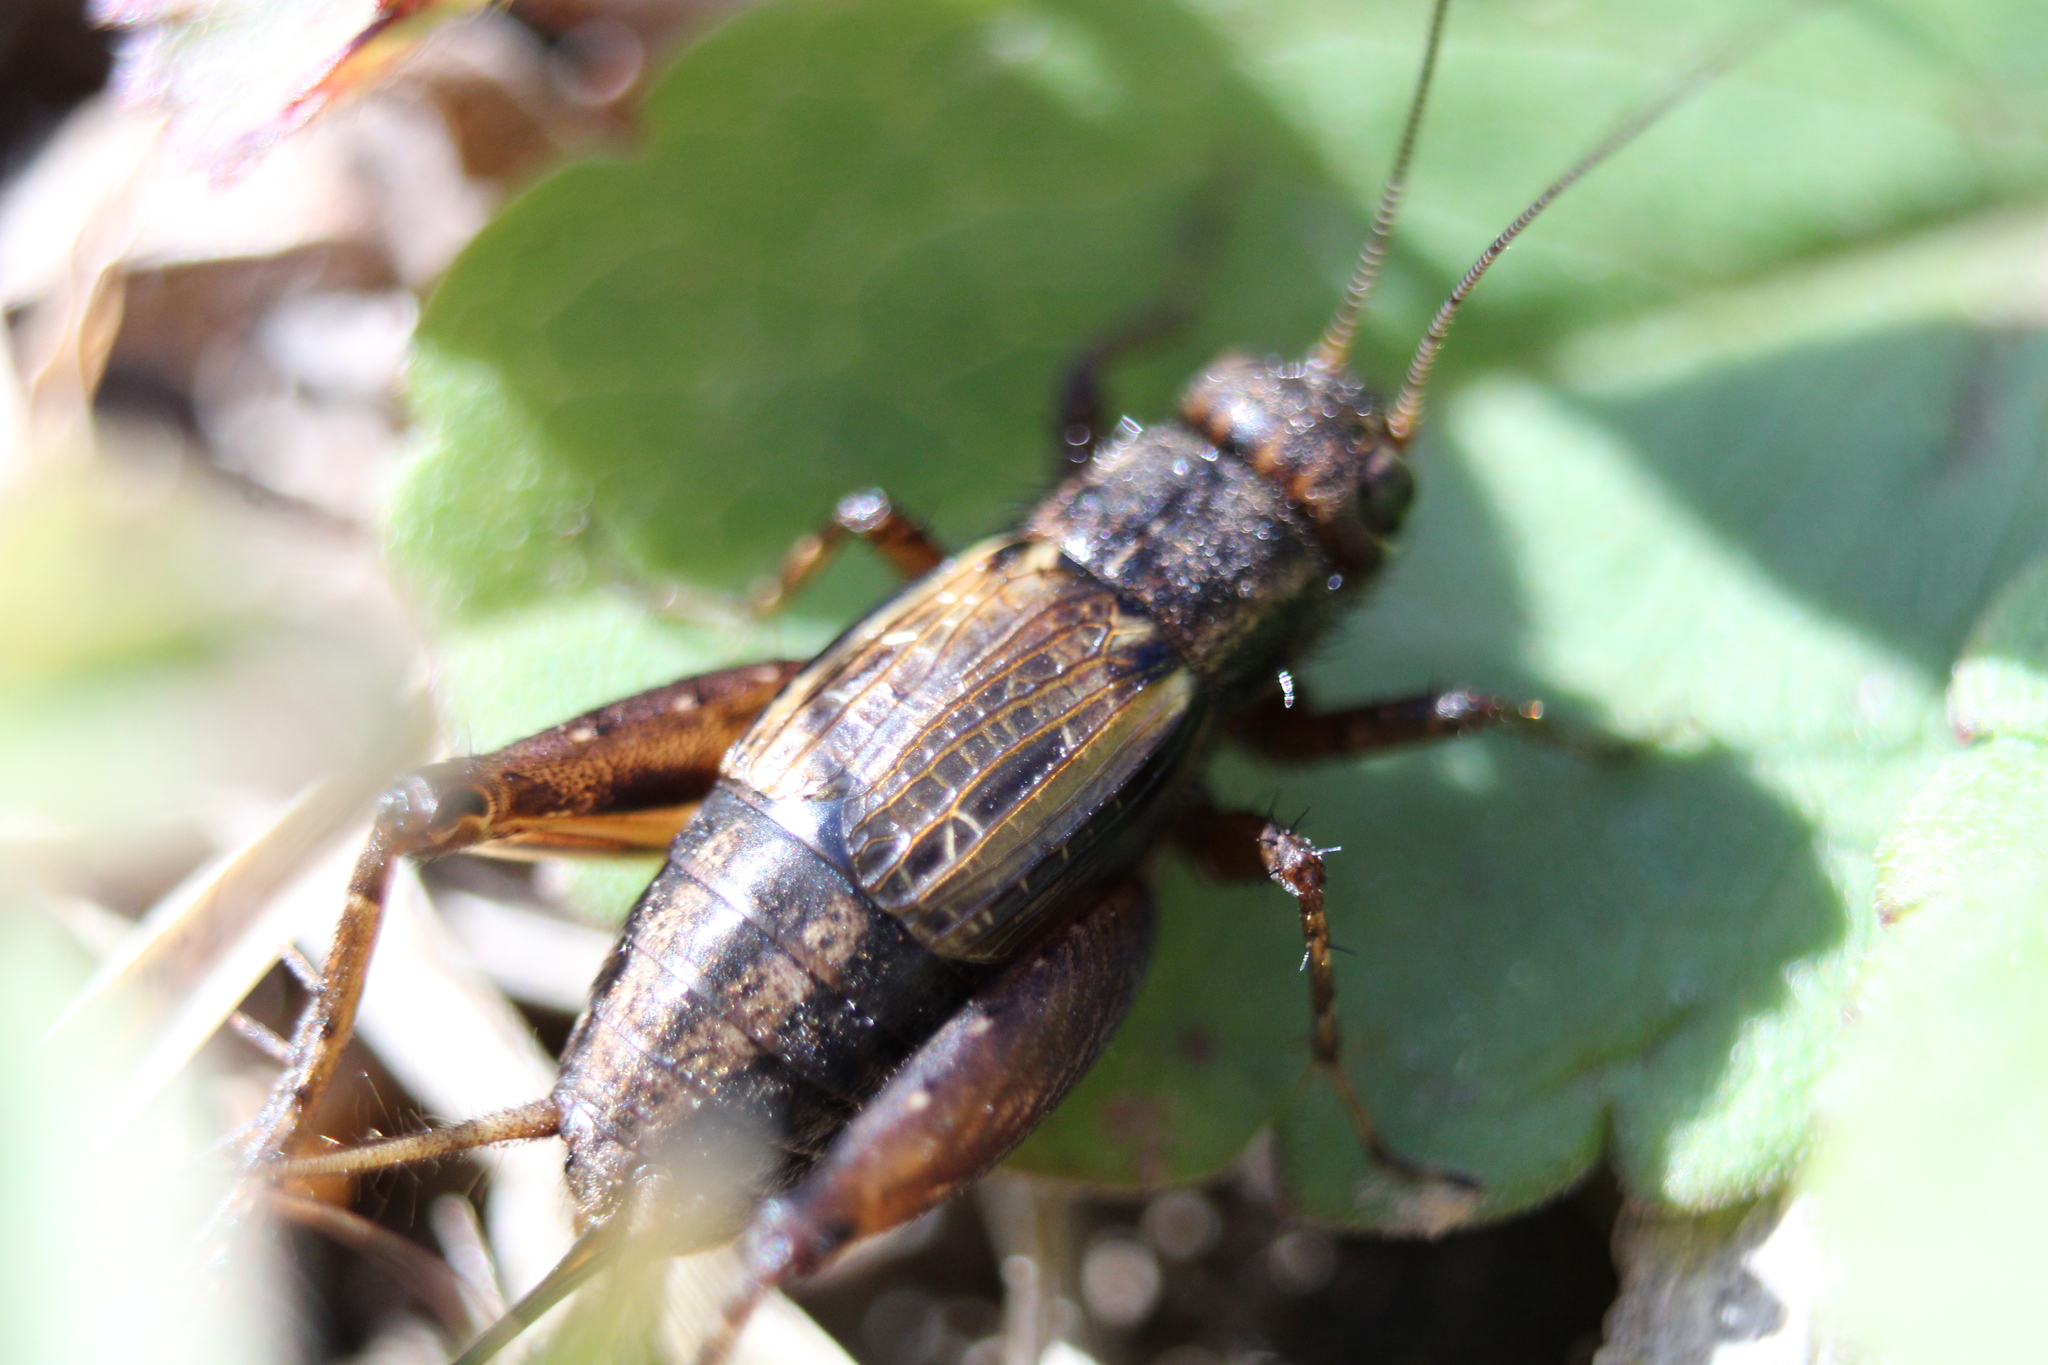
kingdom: Animalia
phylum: Arthropoda
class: Insecta
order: Orthoptera
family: Trigonidiidae
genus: Allonemobius
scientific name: Allonemobius fasciatus
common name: Striped ground cricket
